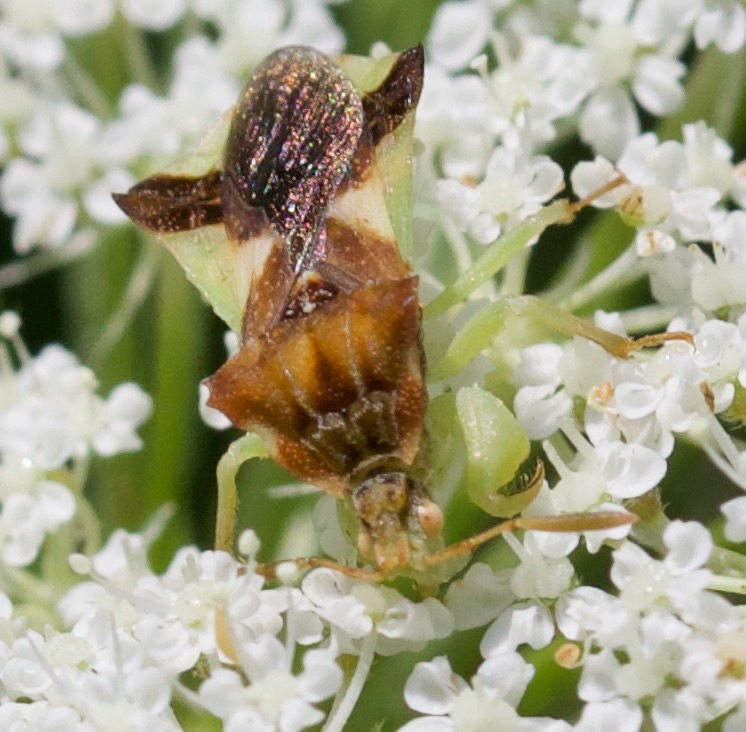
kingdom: Animalia
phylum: Arthropoda
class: Insecta
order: Hemiptera
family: Reduviidae
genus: Phymata
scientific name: Phymata pennsylvanica
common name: Pennsylvania ambush bug
